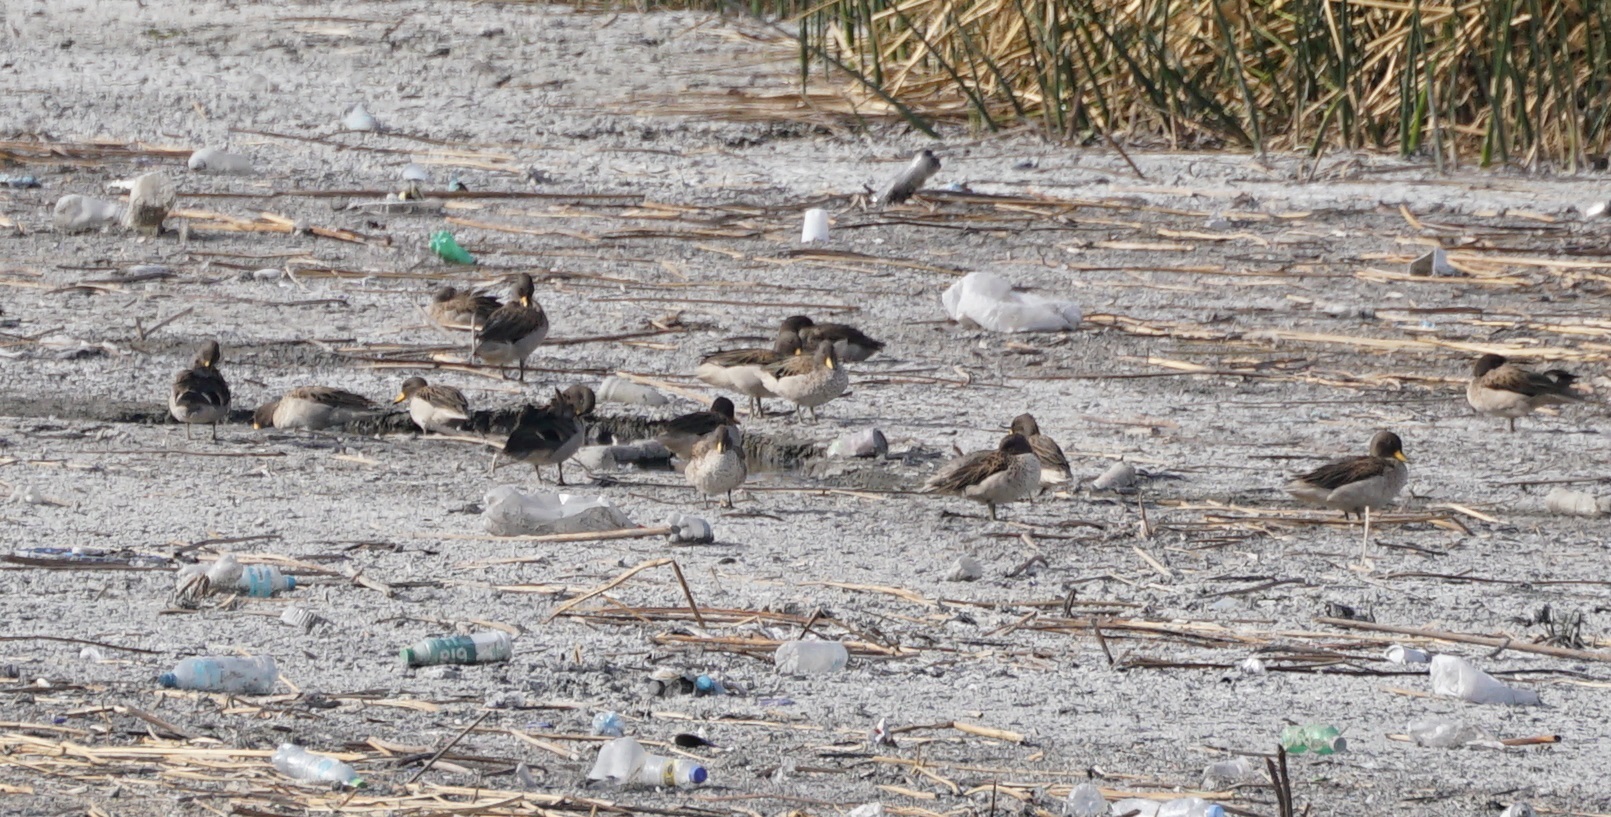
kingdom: Animalia
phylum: Chordata
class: Aves
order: Anseriformes
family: Anatidae
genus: Anas
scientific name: Anas flavirostris
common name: Yellow-billed teal
